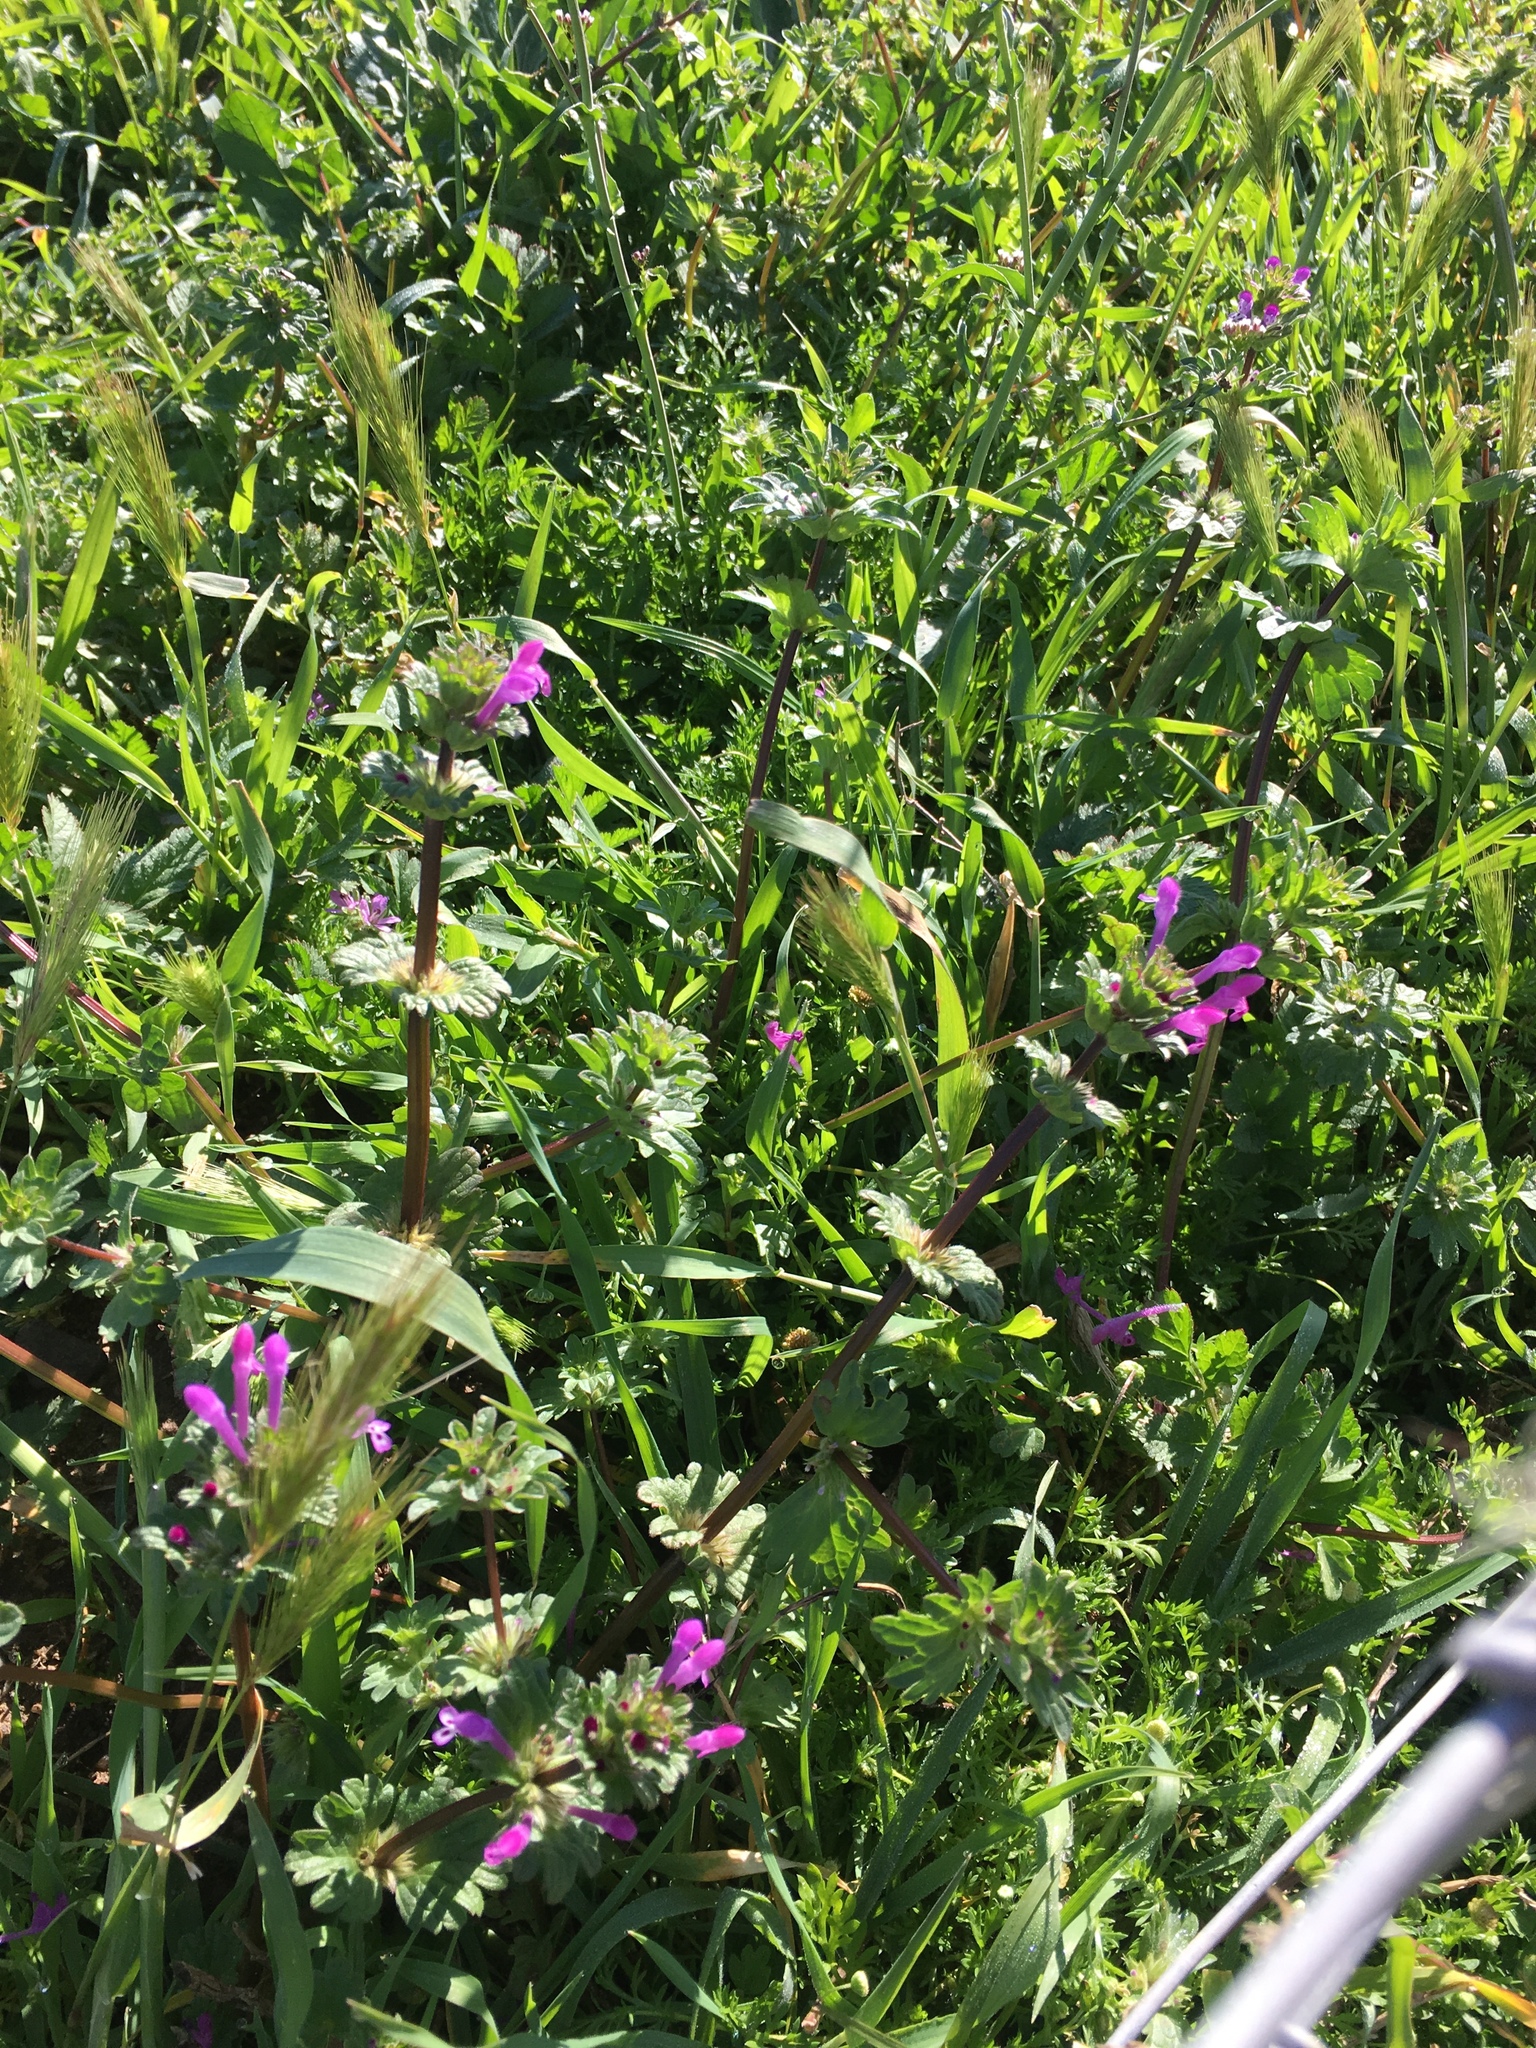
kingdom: Plantae
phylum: Tracheophyta
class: Magnoliopsida
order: Lamiales
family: Lamiaceae
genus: Lamium
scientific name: Lamium amplexicaule
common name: Henbit dead-nettle
